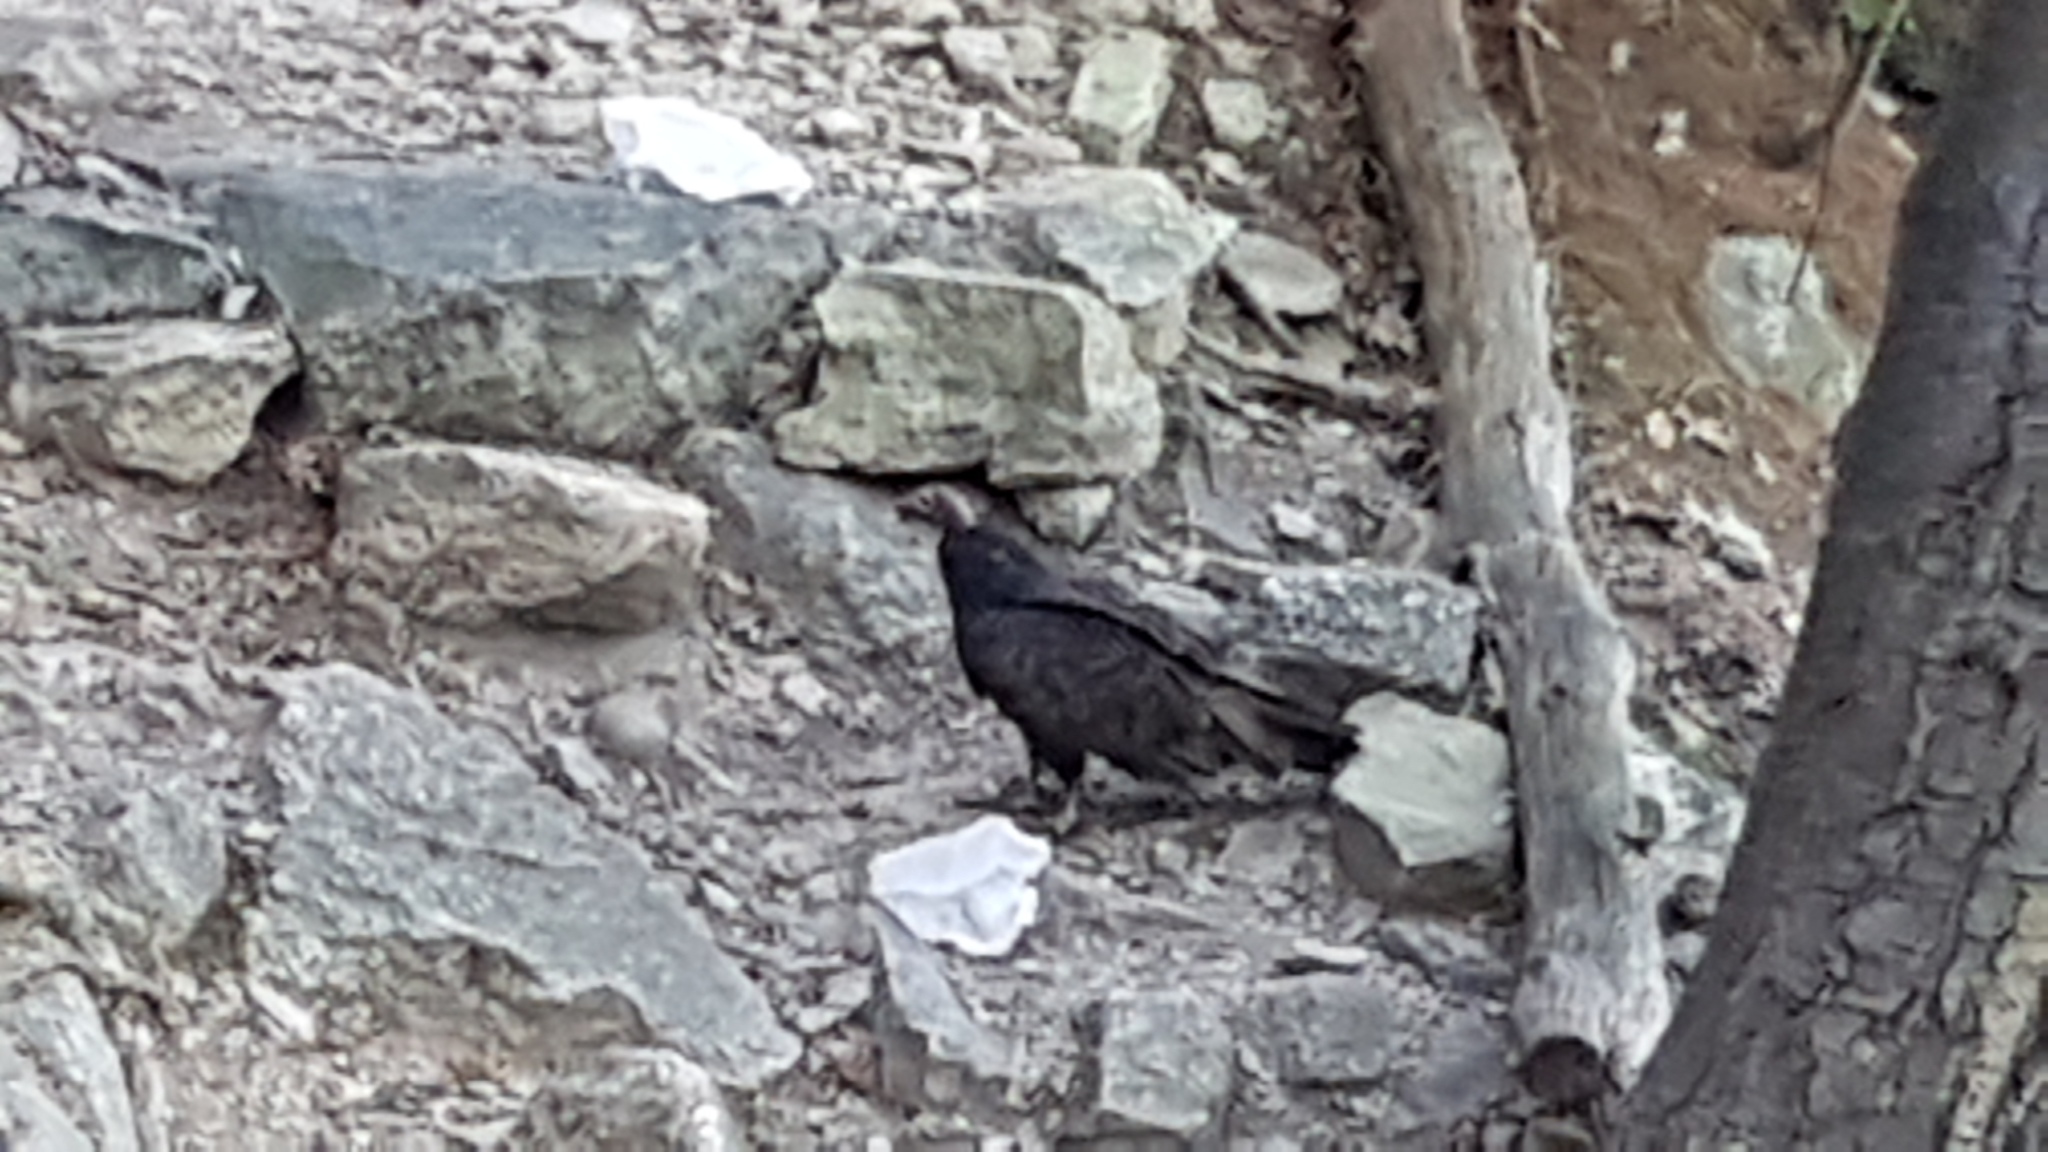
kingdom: Animalia
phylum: Chordata
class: Aves
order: Accipitriformes
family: Cathartidae
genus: Cathartes
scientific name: Cathartes aura
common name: Turkey vulture
